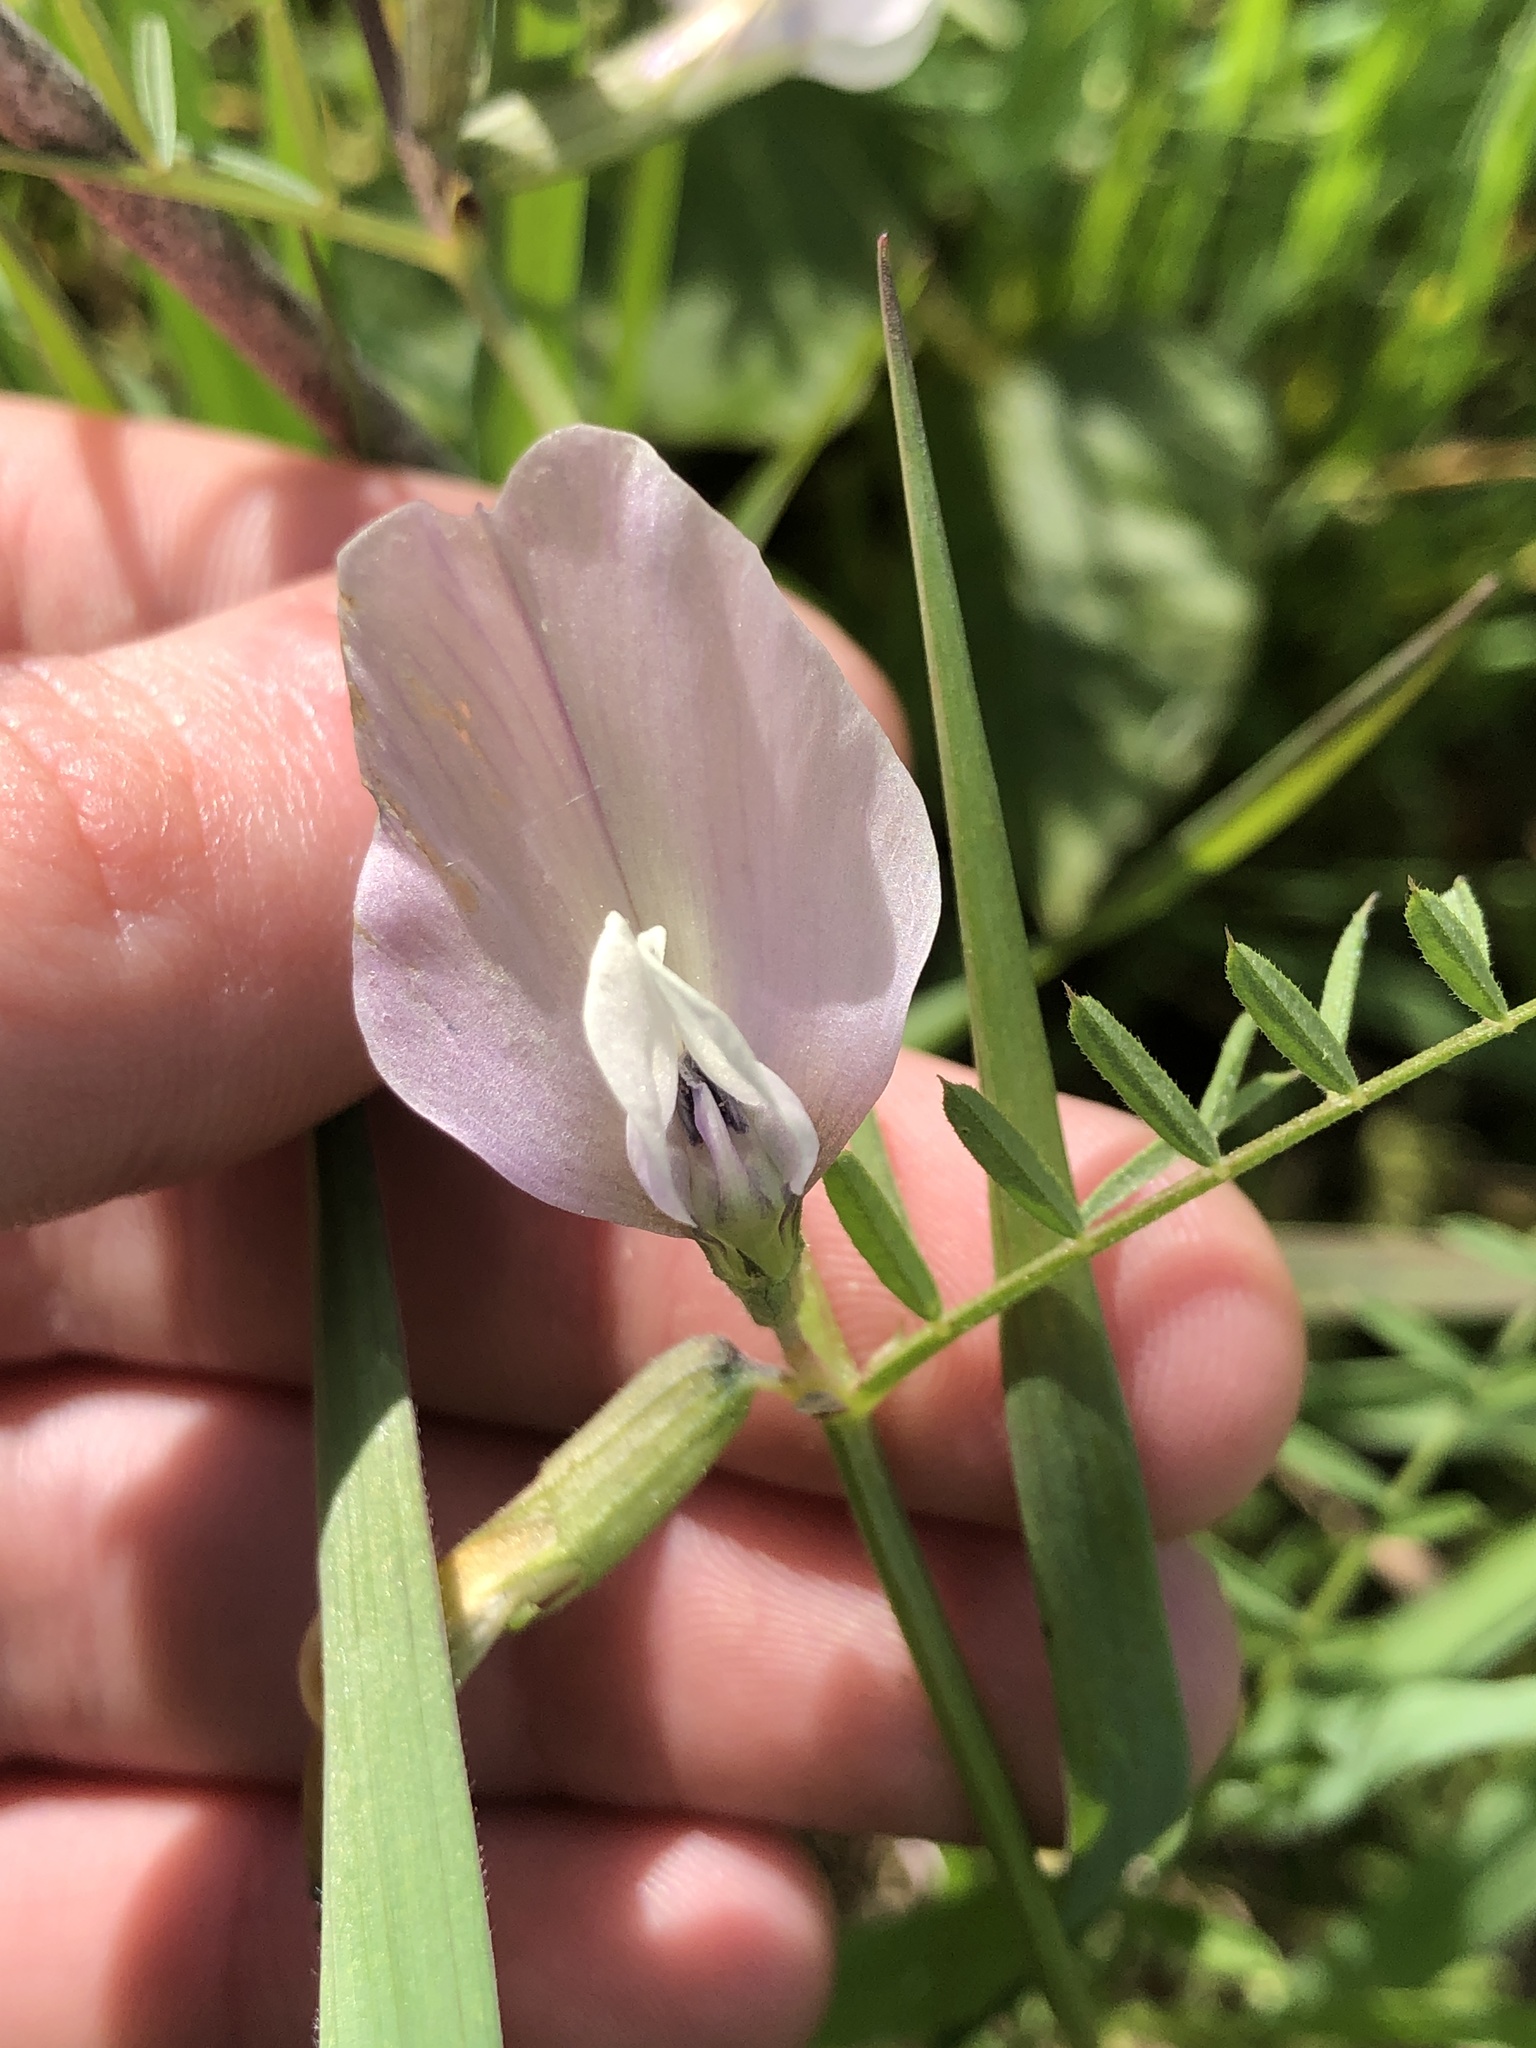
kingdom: Plantae
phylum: Tracheophyta
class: Magnoliopsida
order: Fabales
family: Fabaceae
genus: Vicia
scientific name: Vicia grandiflora
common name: Large yellow vetch
